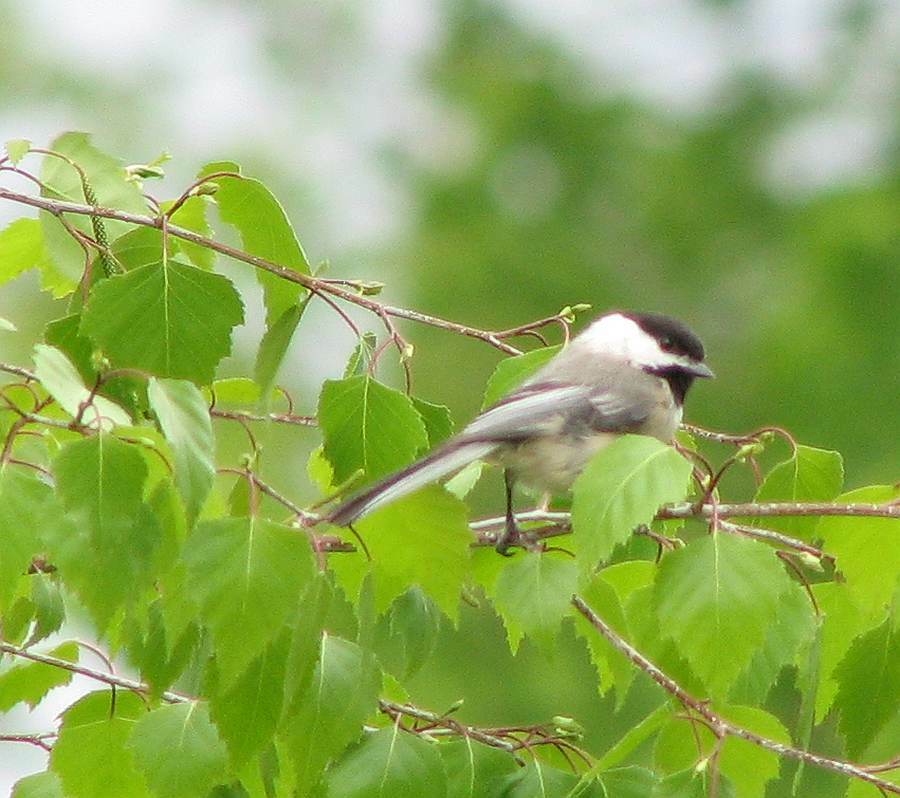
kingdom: Animalia
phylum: Chordata
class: Aves
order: Passeriformes
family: Paridae
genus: Poecile
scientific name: Poecile atricapillus
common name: Black-capped chickadee
